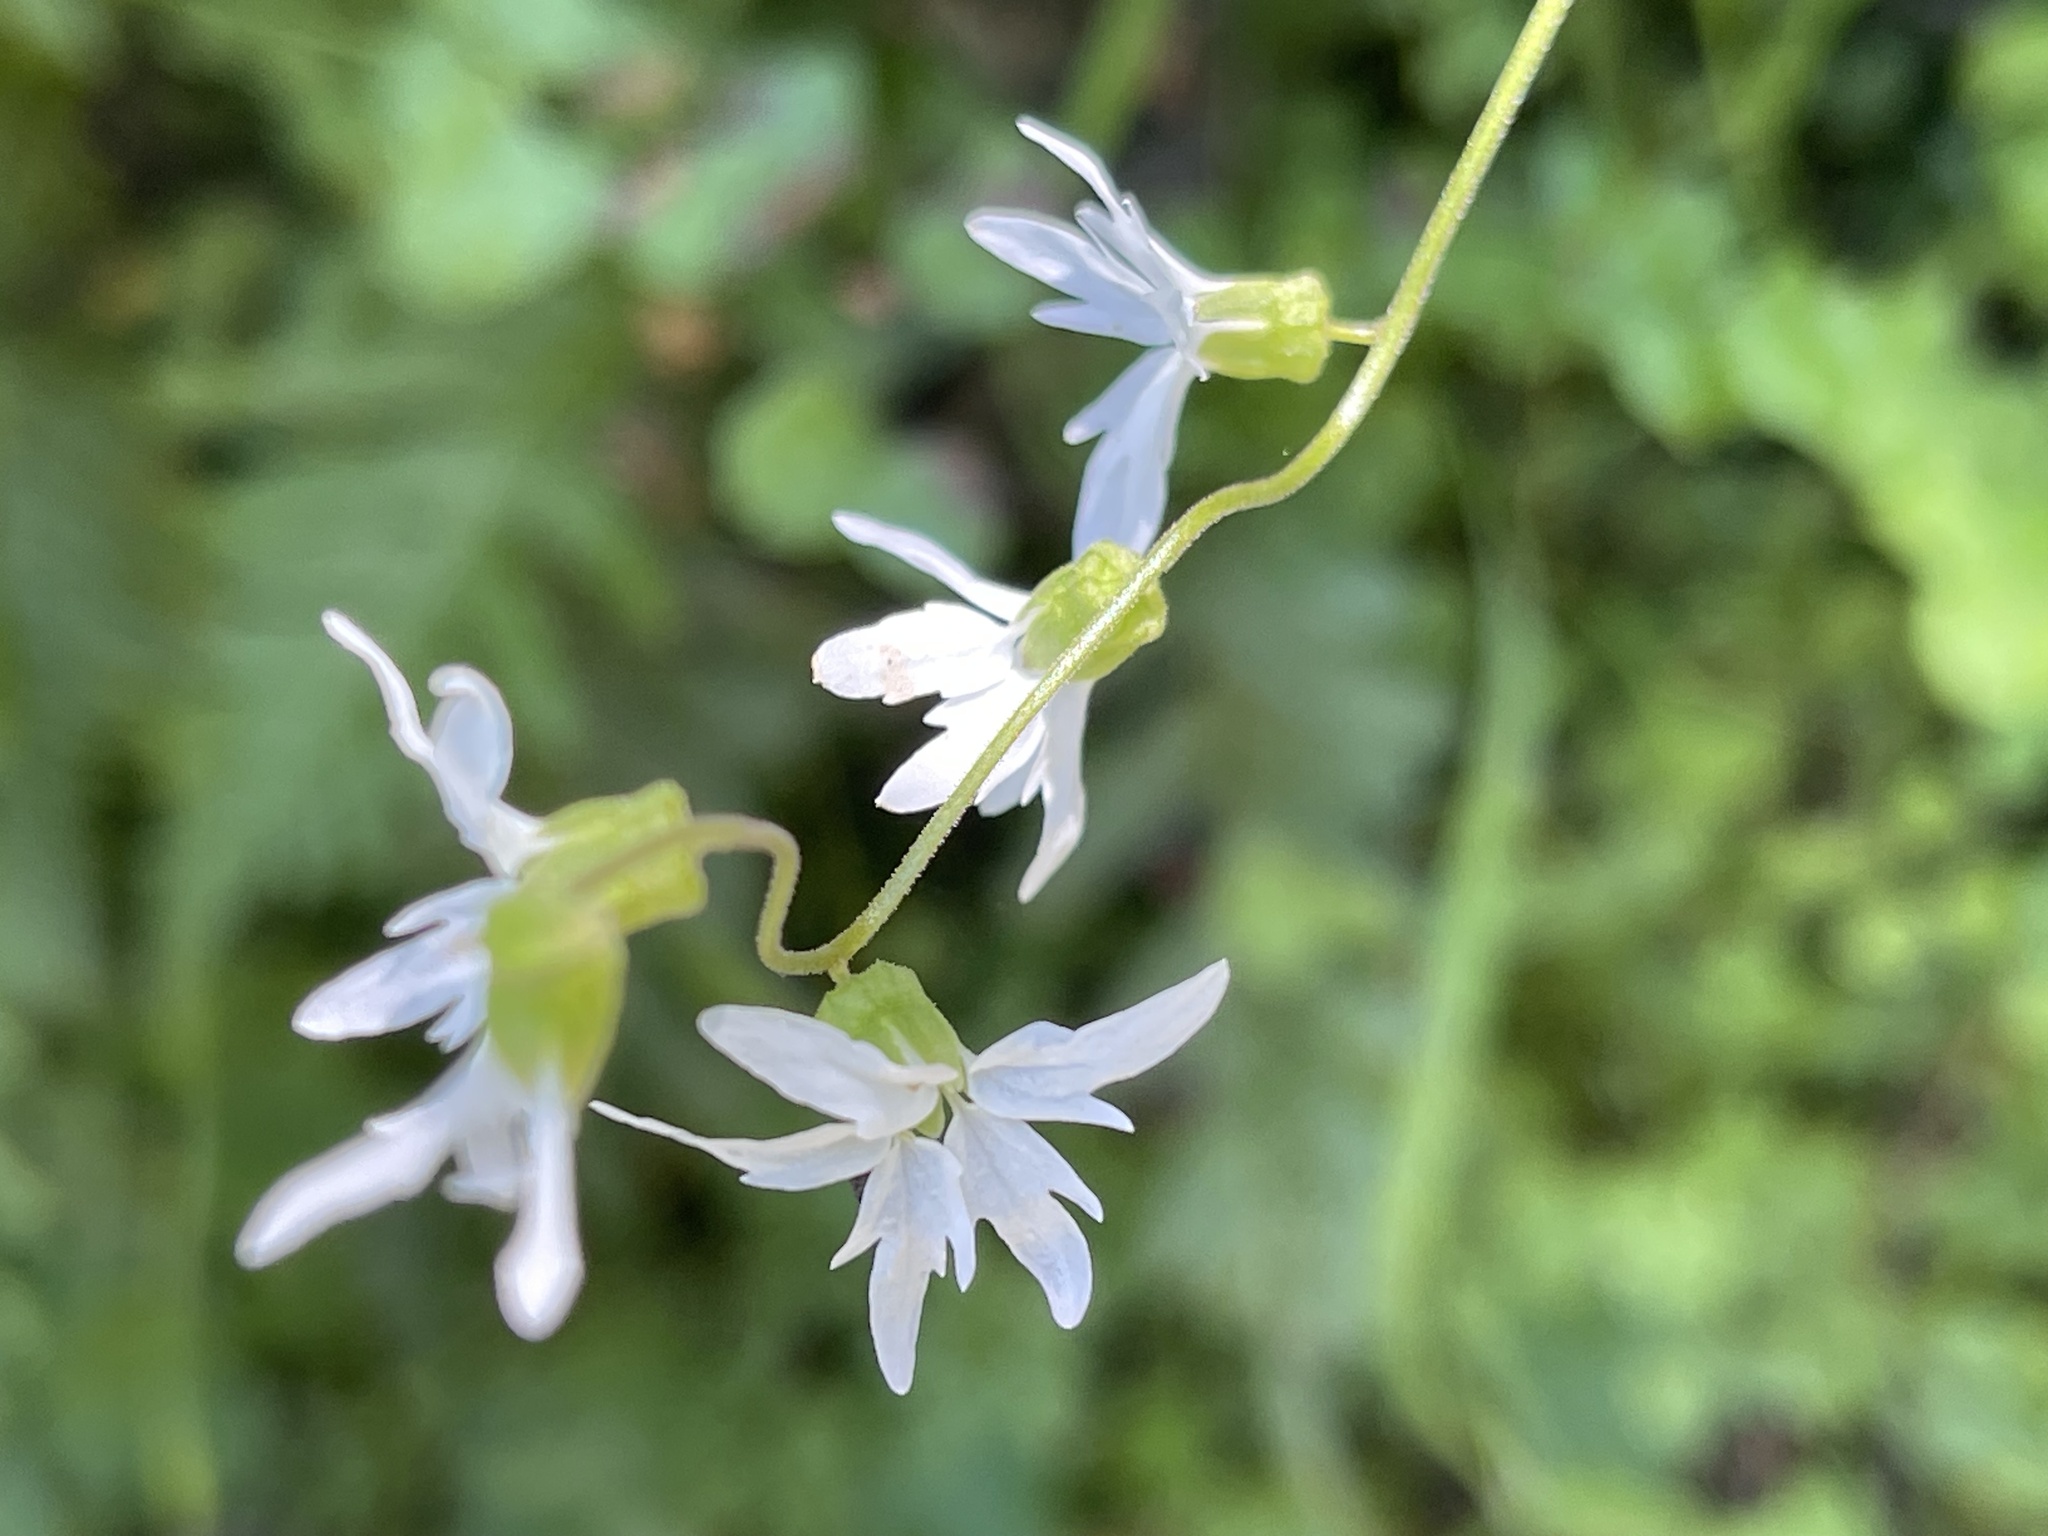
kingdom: Plantae
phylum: Tracheophyta
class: Magnoliopsida
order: Saxifragales
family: Saxifragaceae
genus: Lithophragma
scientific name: Lithophragma heterophyllum
